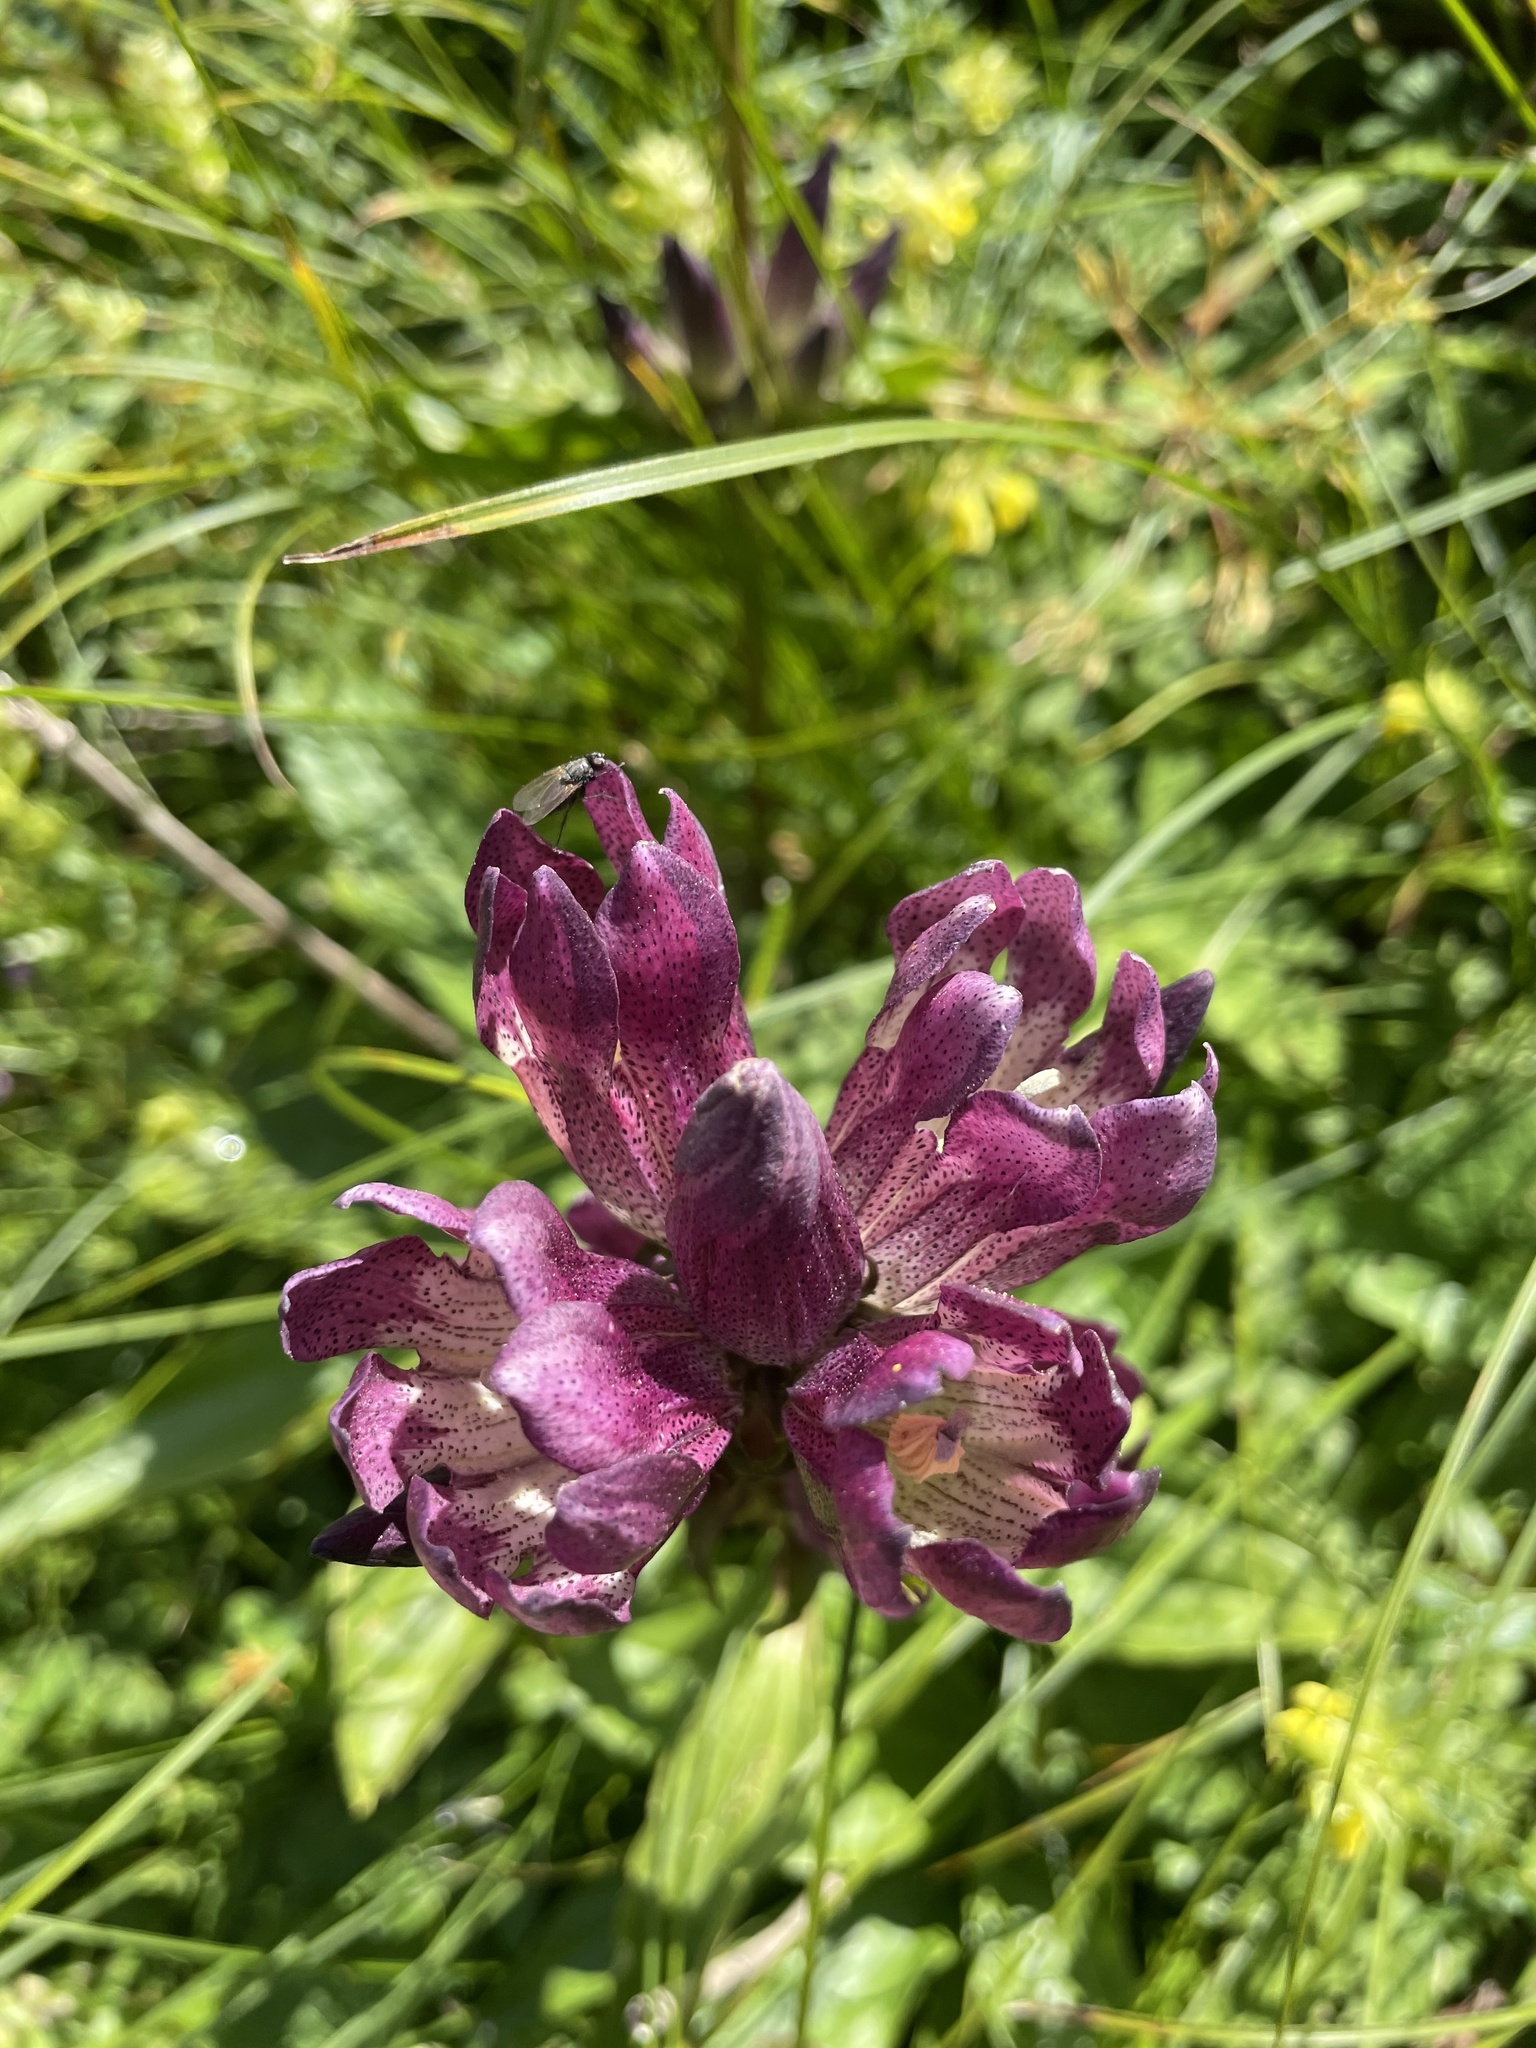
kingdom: Plantae
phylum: Tracheophyta
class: Magnoliopsida
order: Gentianales
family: Gentianaceae
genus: Gentiana
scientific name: Gentiana pannonica
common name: Hungarian gentian
